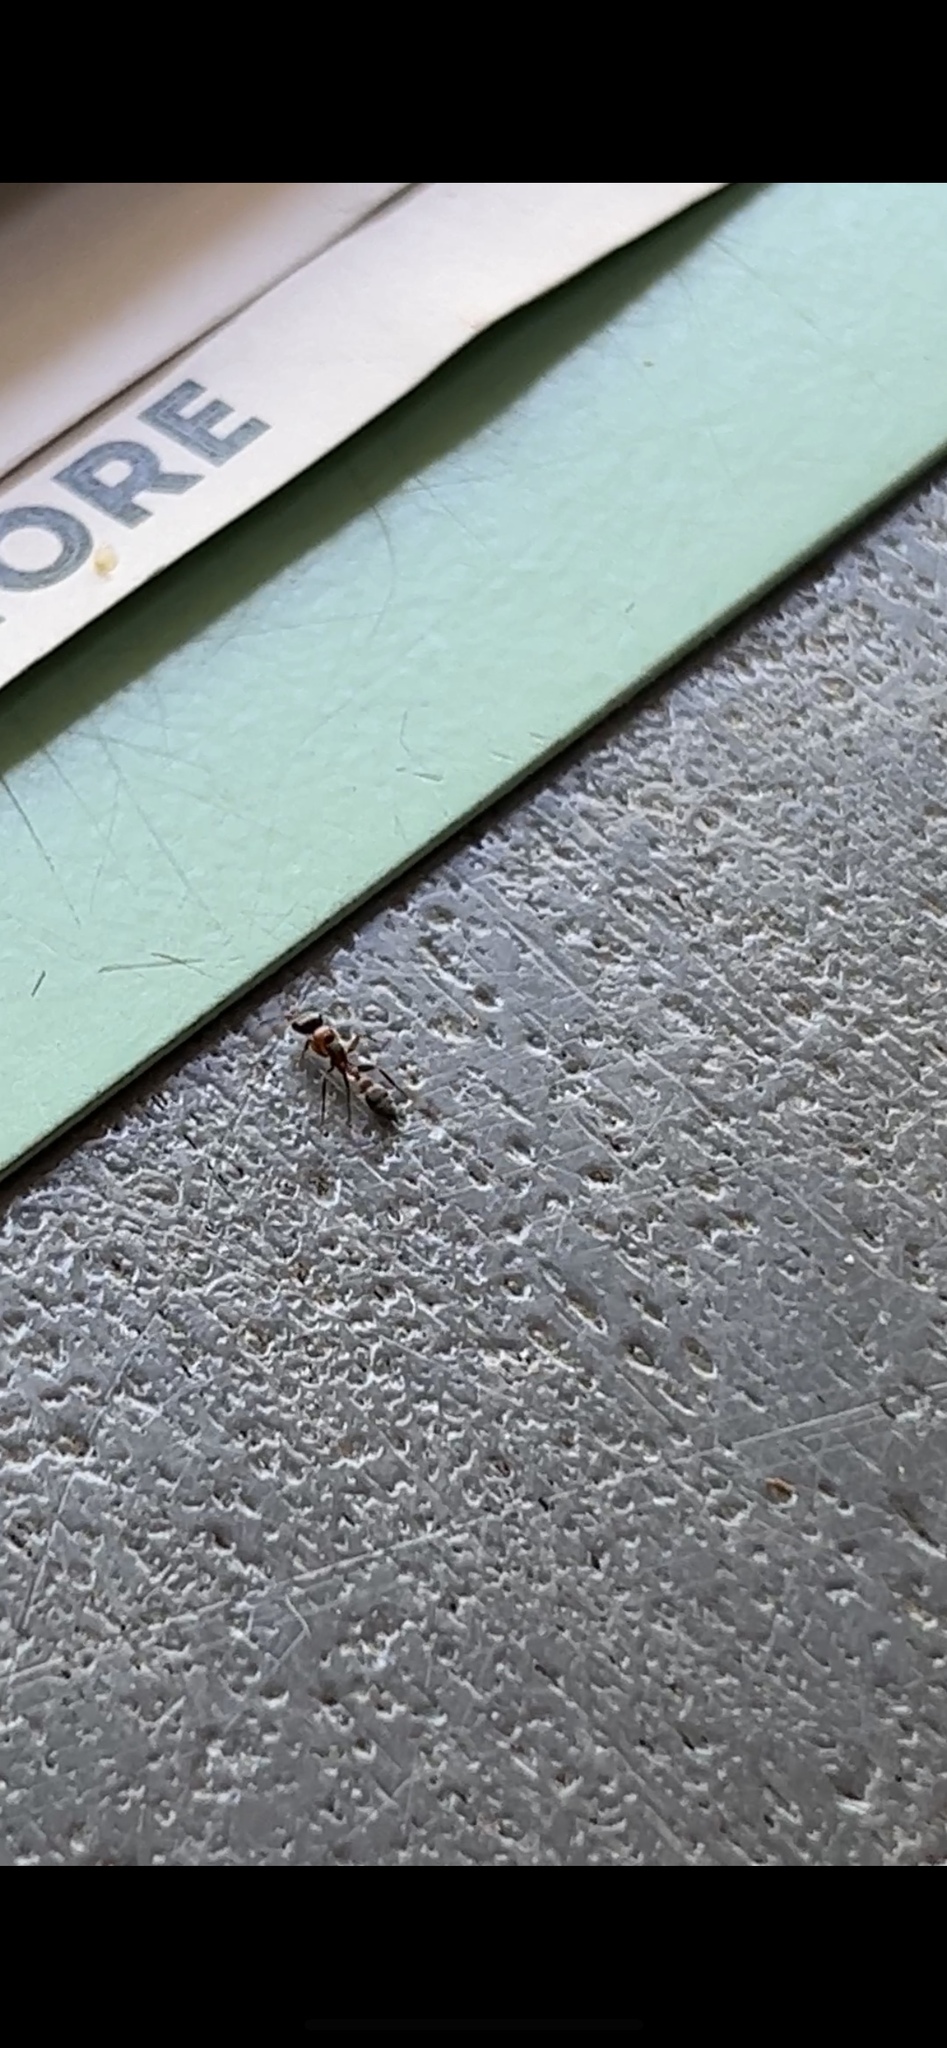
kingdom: Animalia
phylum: Arthropoda
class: Insecta
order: Hymenoptera
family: Formicidae
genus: Pseudomyrmex
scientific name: Pseudomyrmex gracilis
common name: Graceful twig ant
